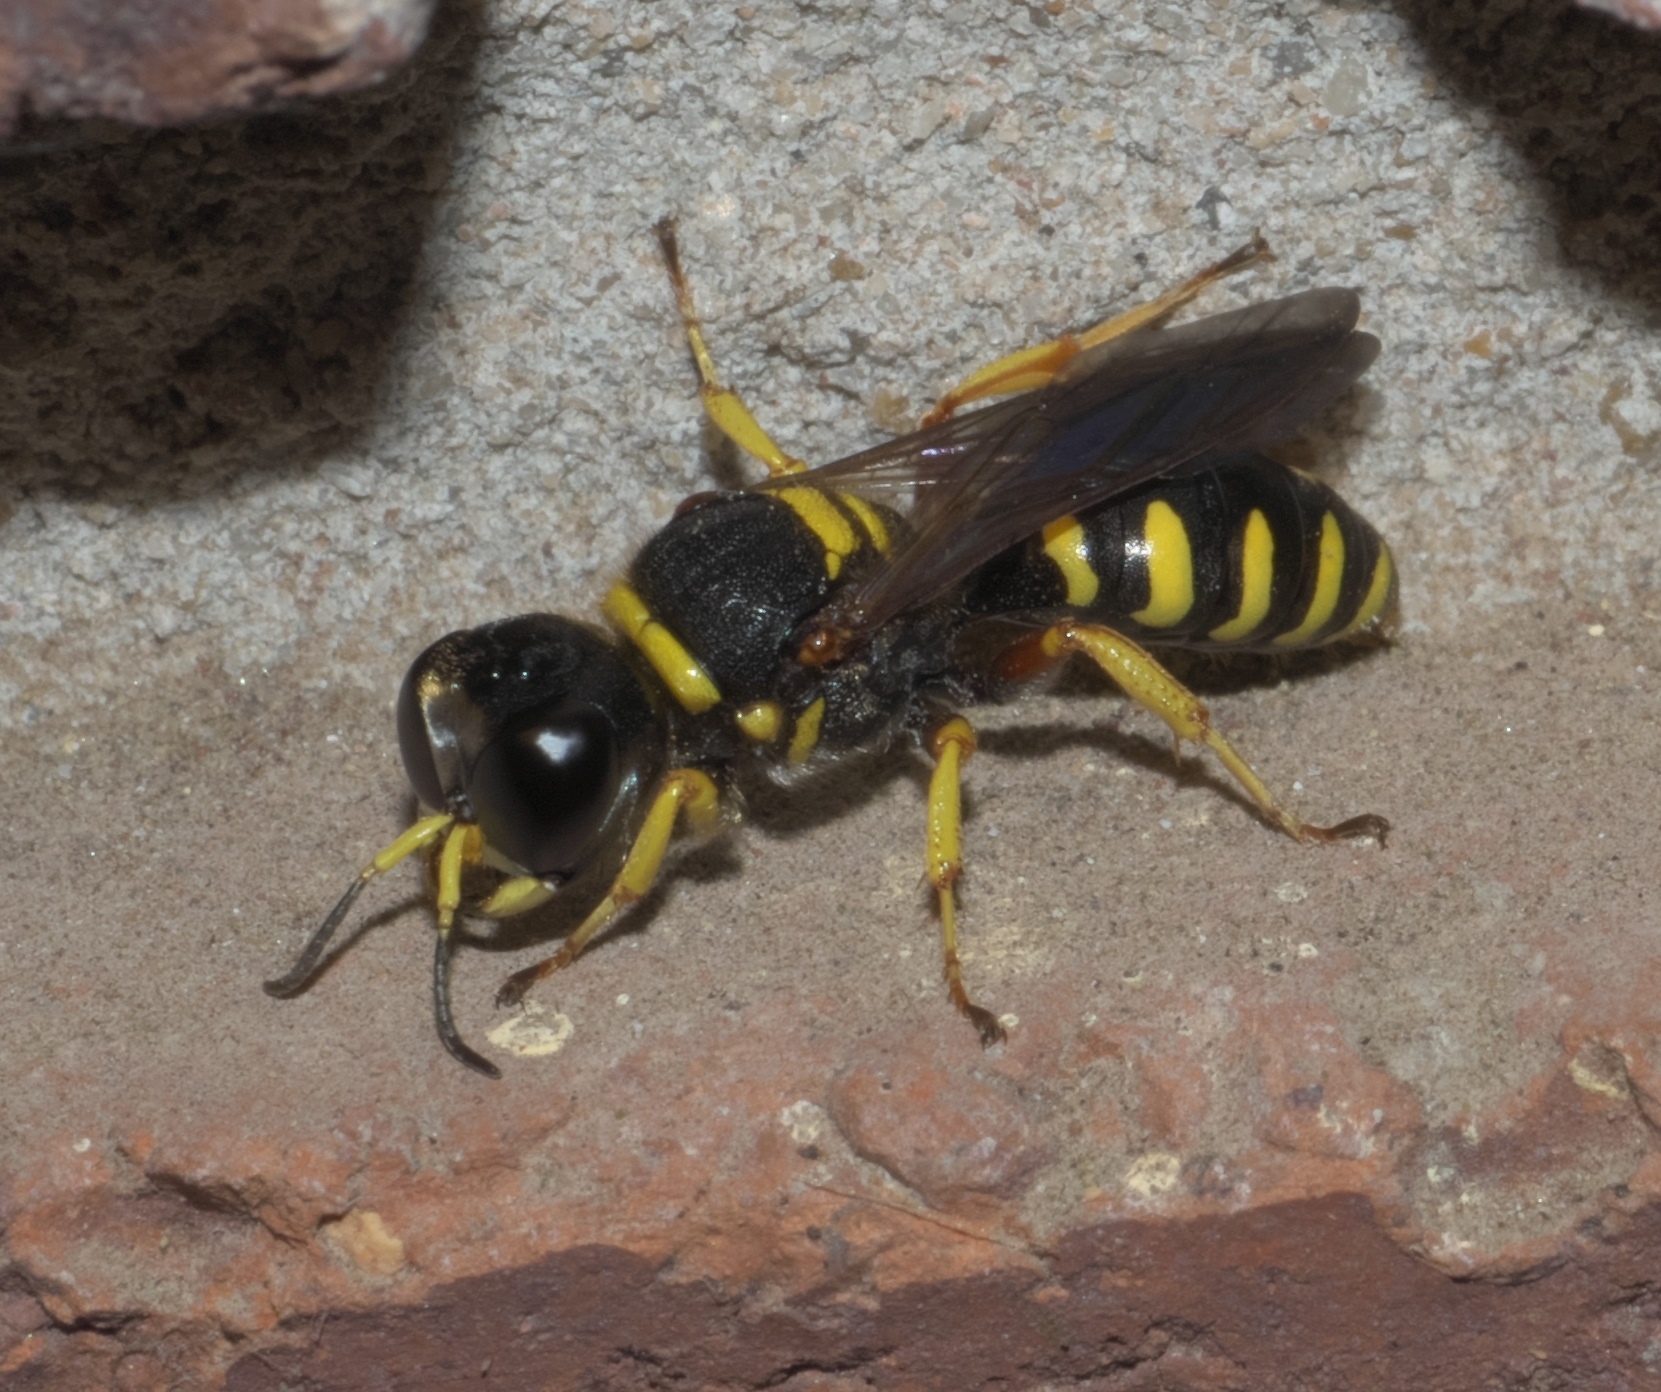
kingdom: Animalia
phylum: Arthropoda
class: Insecta
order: Hymenoptera
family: Crabronidae
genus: Ectemnius
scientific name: Ectemnius decemmaculatus
